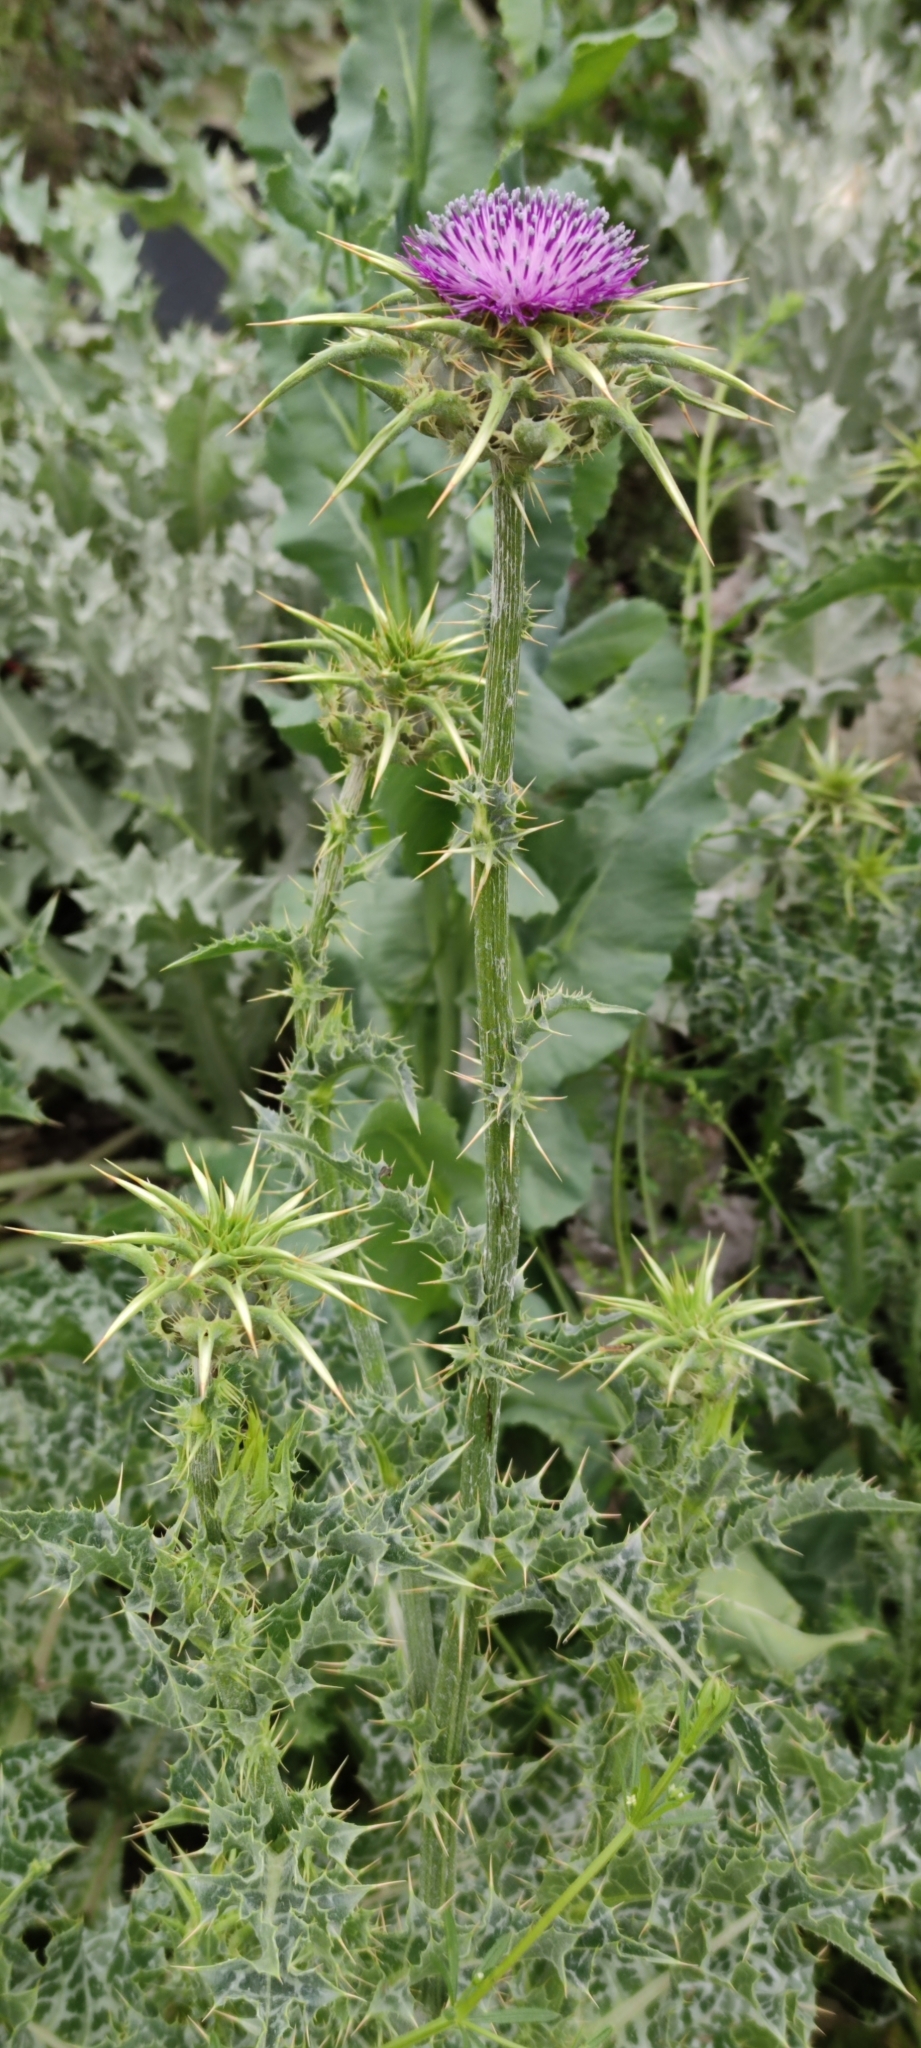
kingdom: Plantae
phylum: Tracheophyta
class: Magnoliopsida
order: Asterales
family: Asteraceae
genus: Silybum
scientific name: Silybum marianum
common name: Milk thistle
